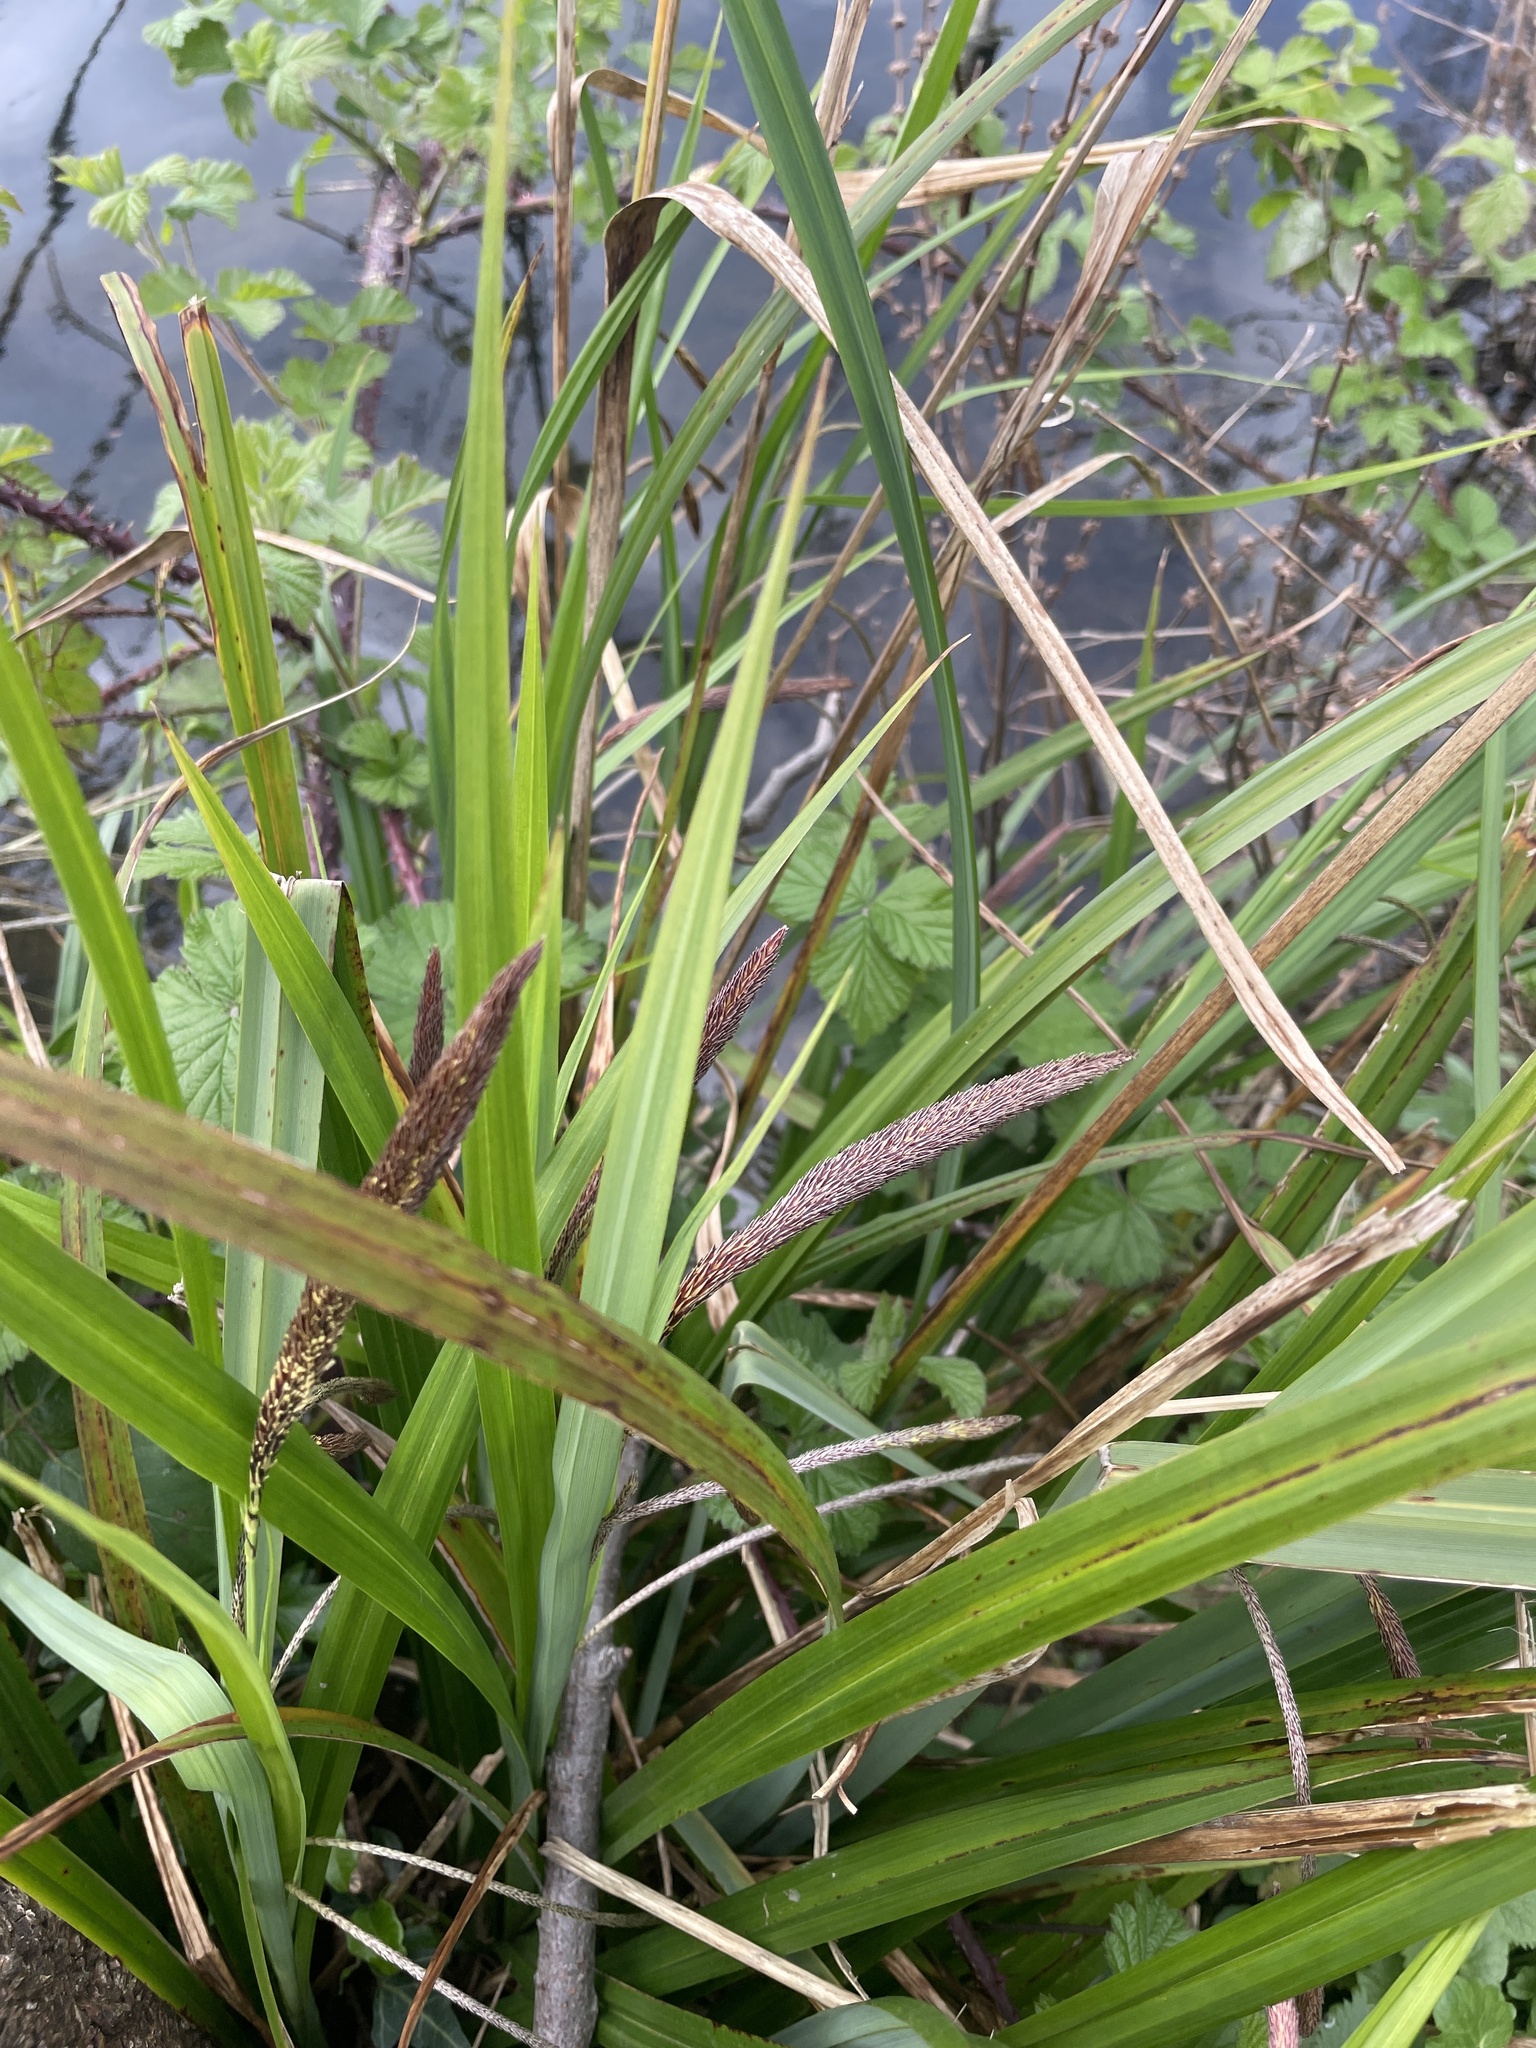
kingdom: Plantae
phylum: Tracheophyta
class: Liliopsida
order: Poales
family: Cyperaceae
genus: Carex
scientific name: Carex pendula
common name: Pendulous sedge
